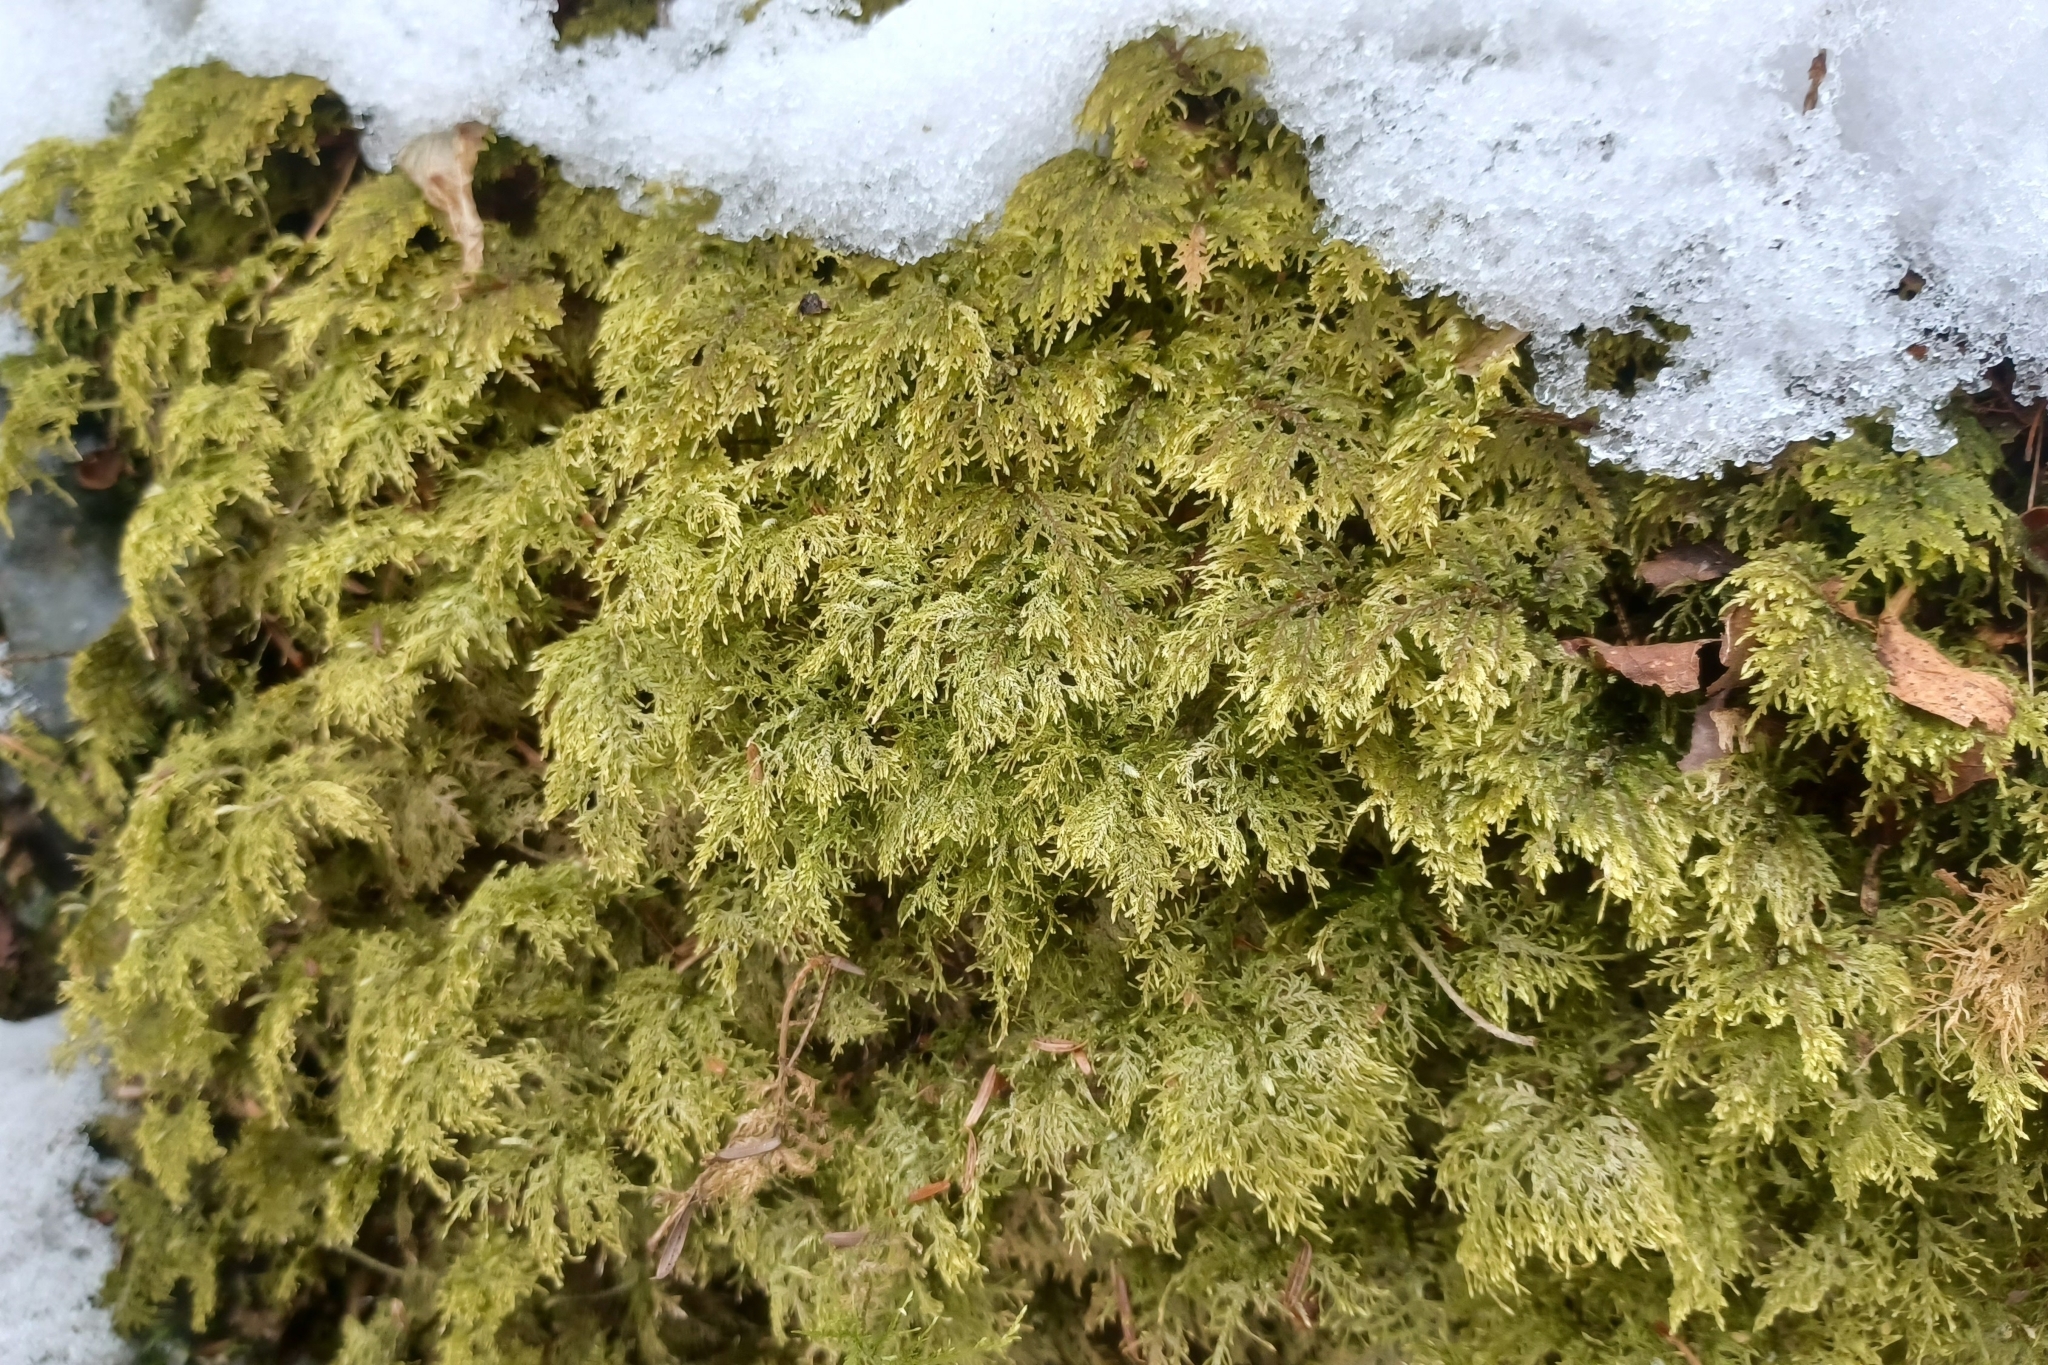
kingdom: Plantae
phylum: Bryophyta
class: Bryopsida
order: Hypnales
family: Hylocomiaceae
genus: Hylocomium
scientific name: Hylocomium splendens
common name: Stairstep moss
